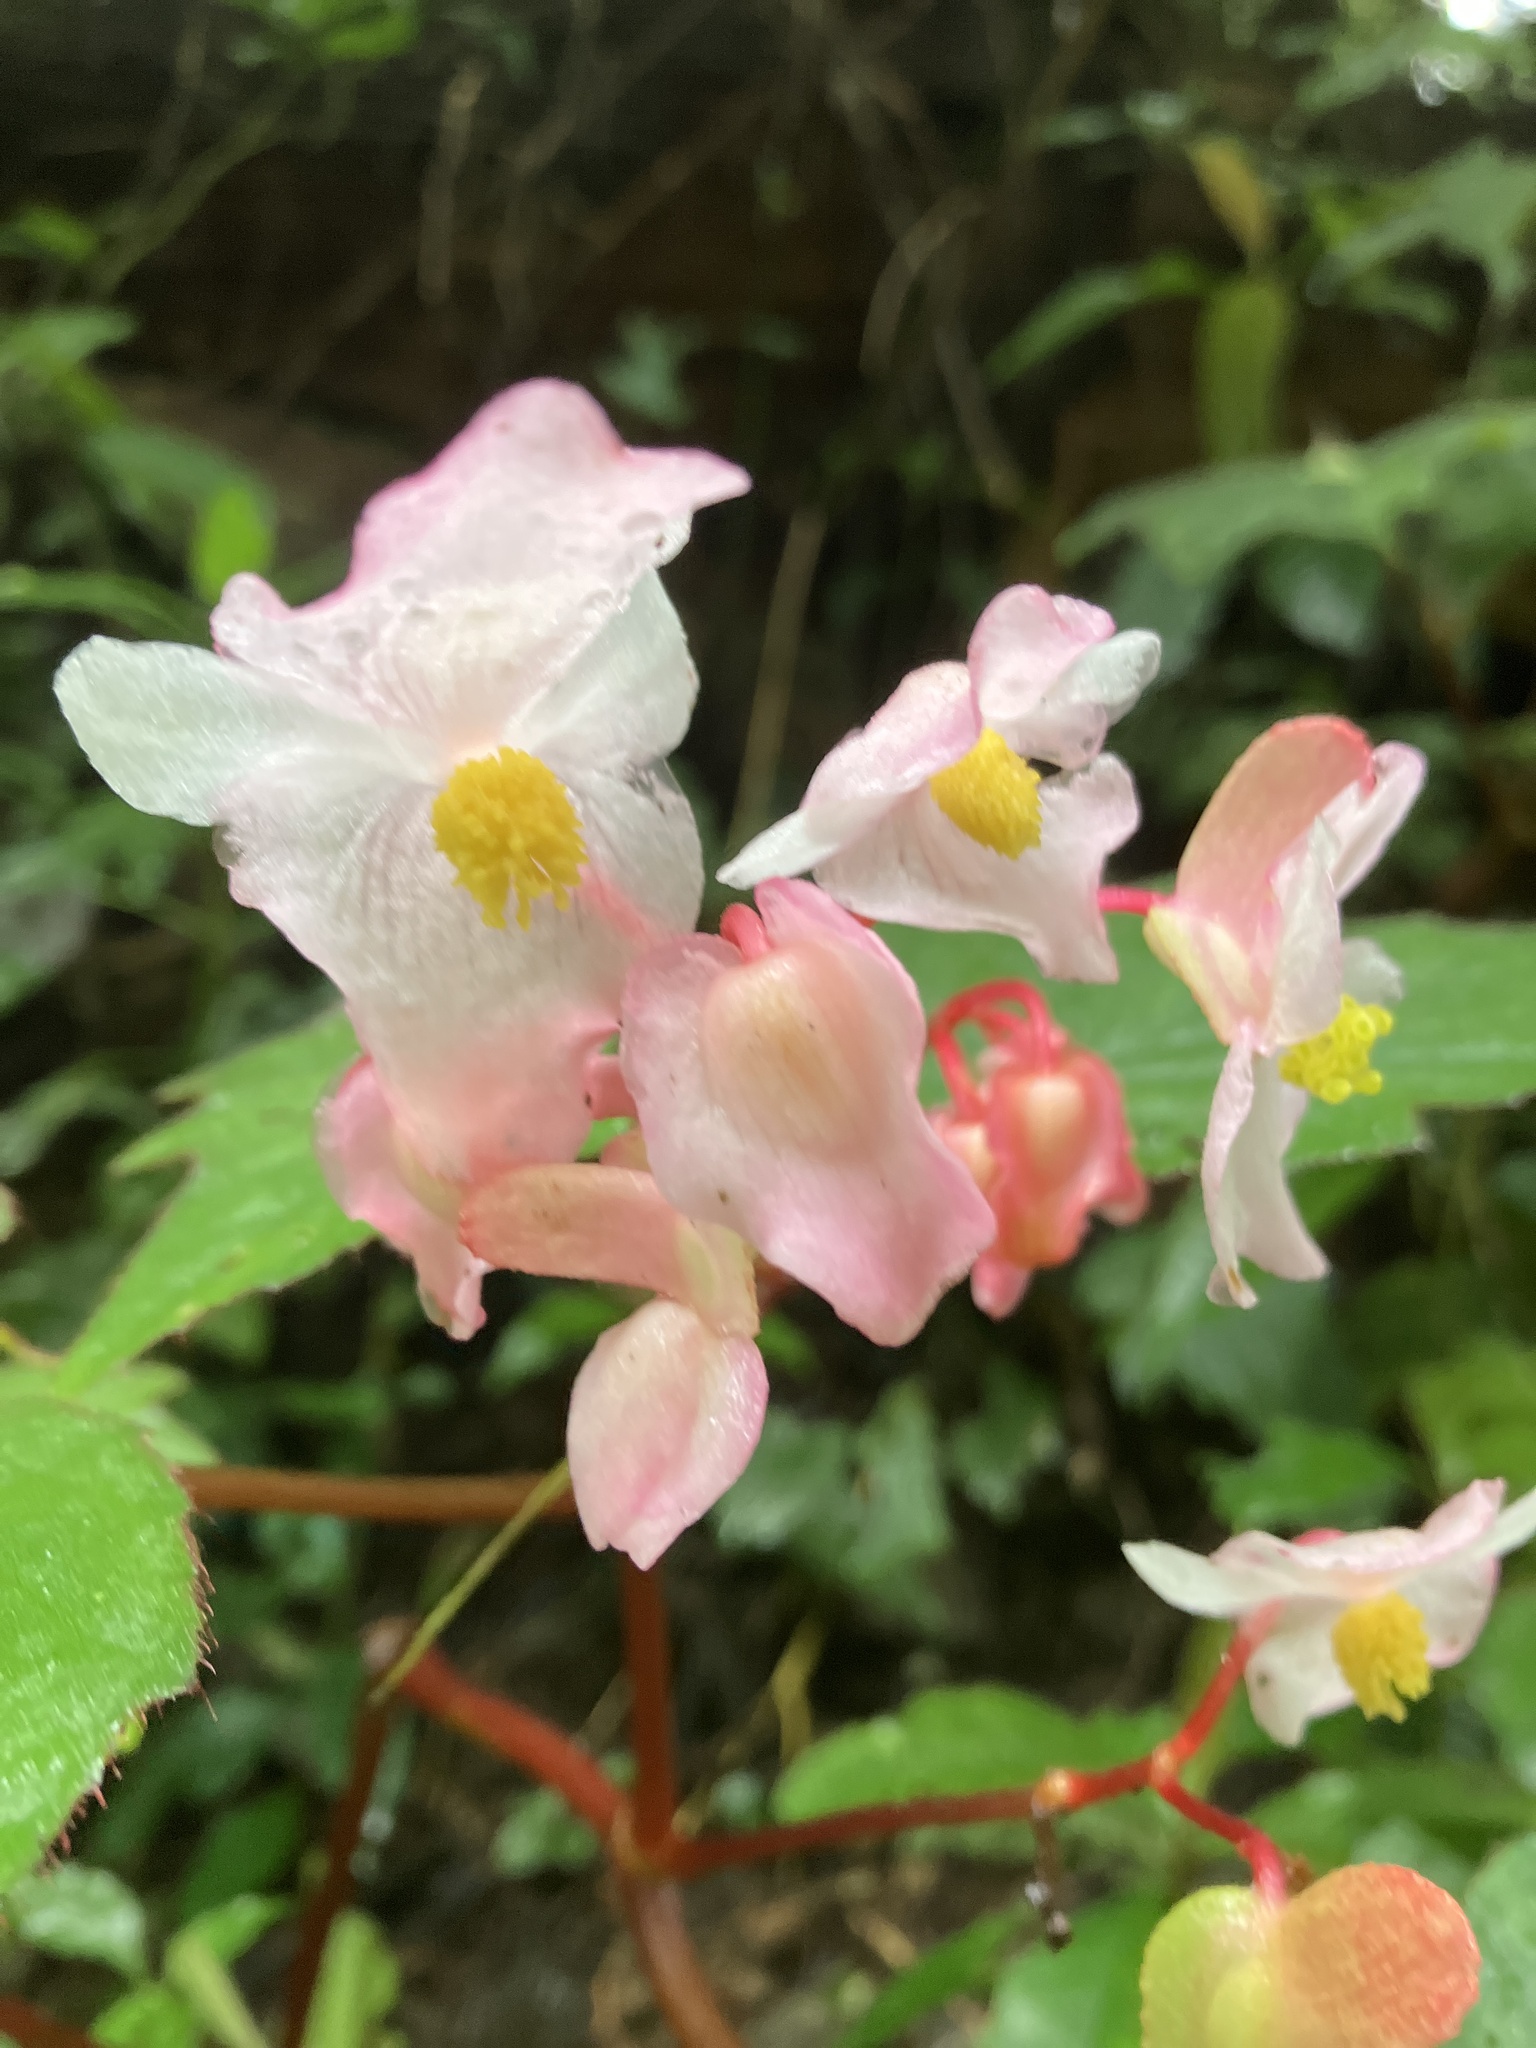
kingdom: Plantae
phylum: Tracheophyta
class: Magnoliopsida
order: Cucurbitales
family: Begoniaceae
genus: Begonia
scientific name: Begonia palmata
